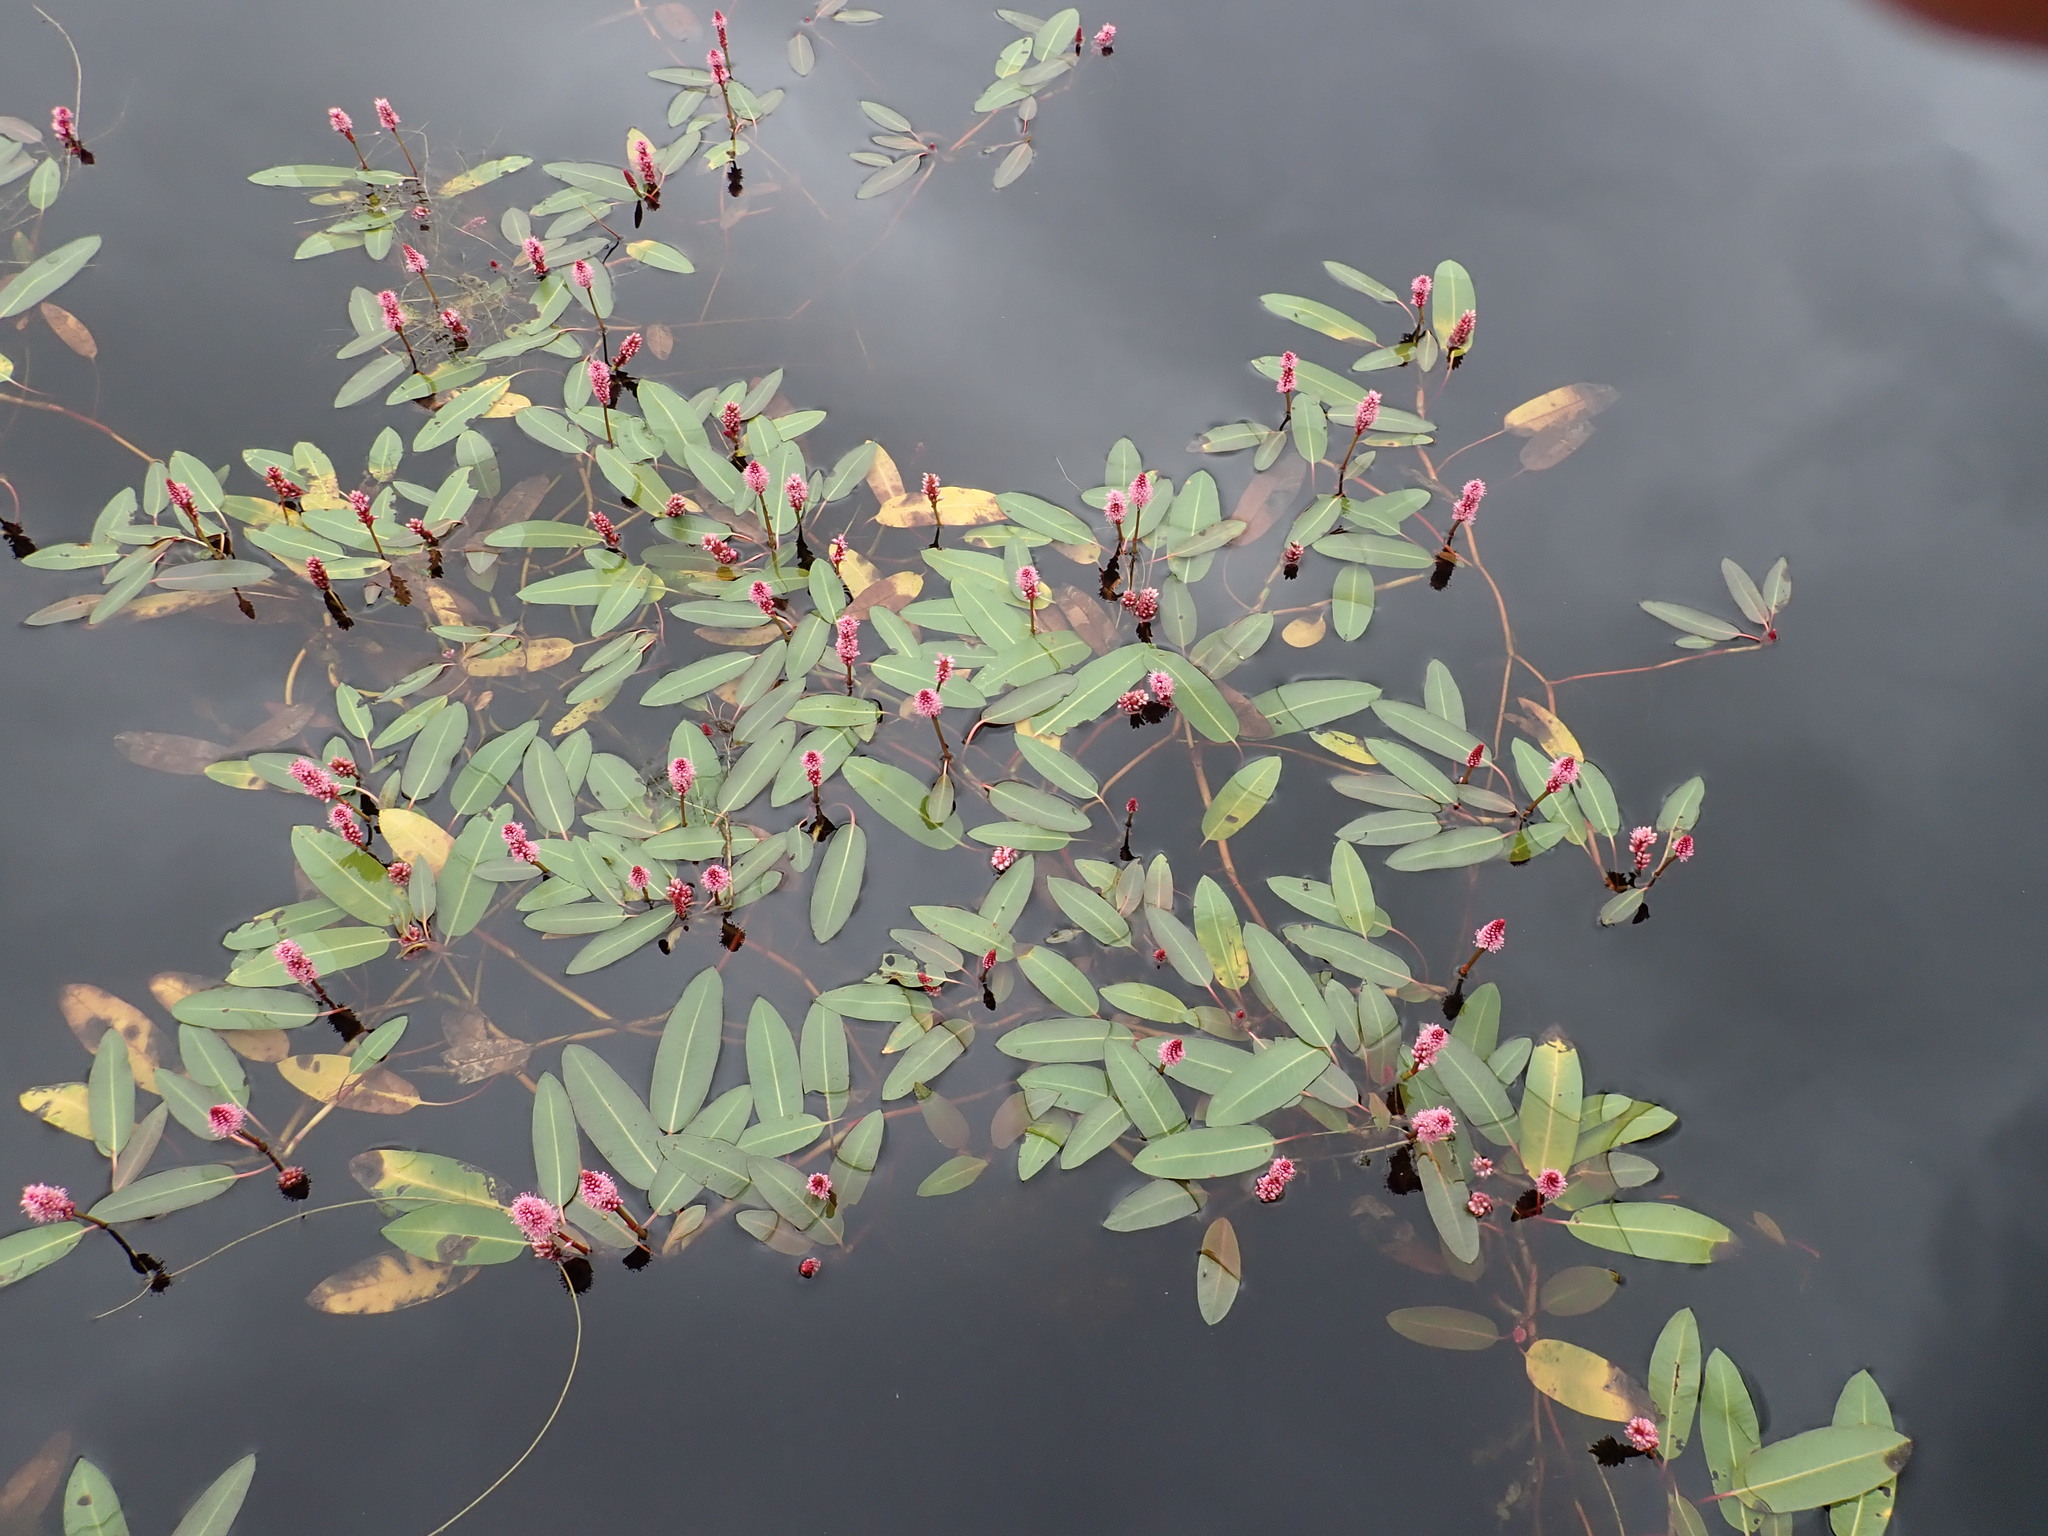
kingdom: Plantae
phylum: Tracheophyta
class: Magnoliopsida
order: Caryophyllales
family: Polygonaceae
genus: Persicaria
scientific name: Persicaria amphibia
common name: Amphibious bistort
